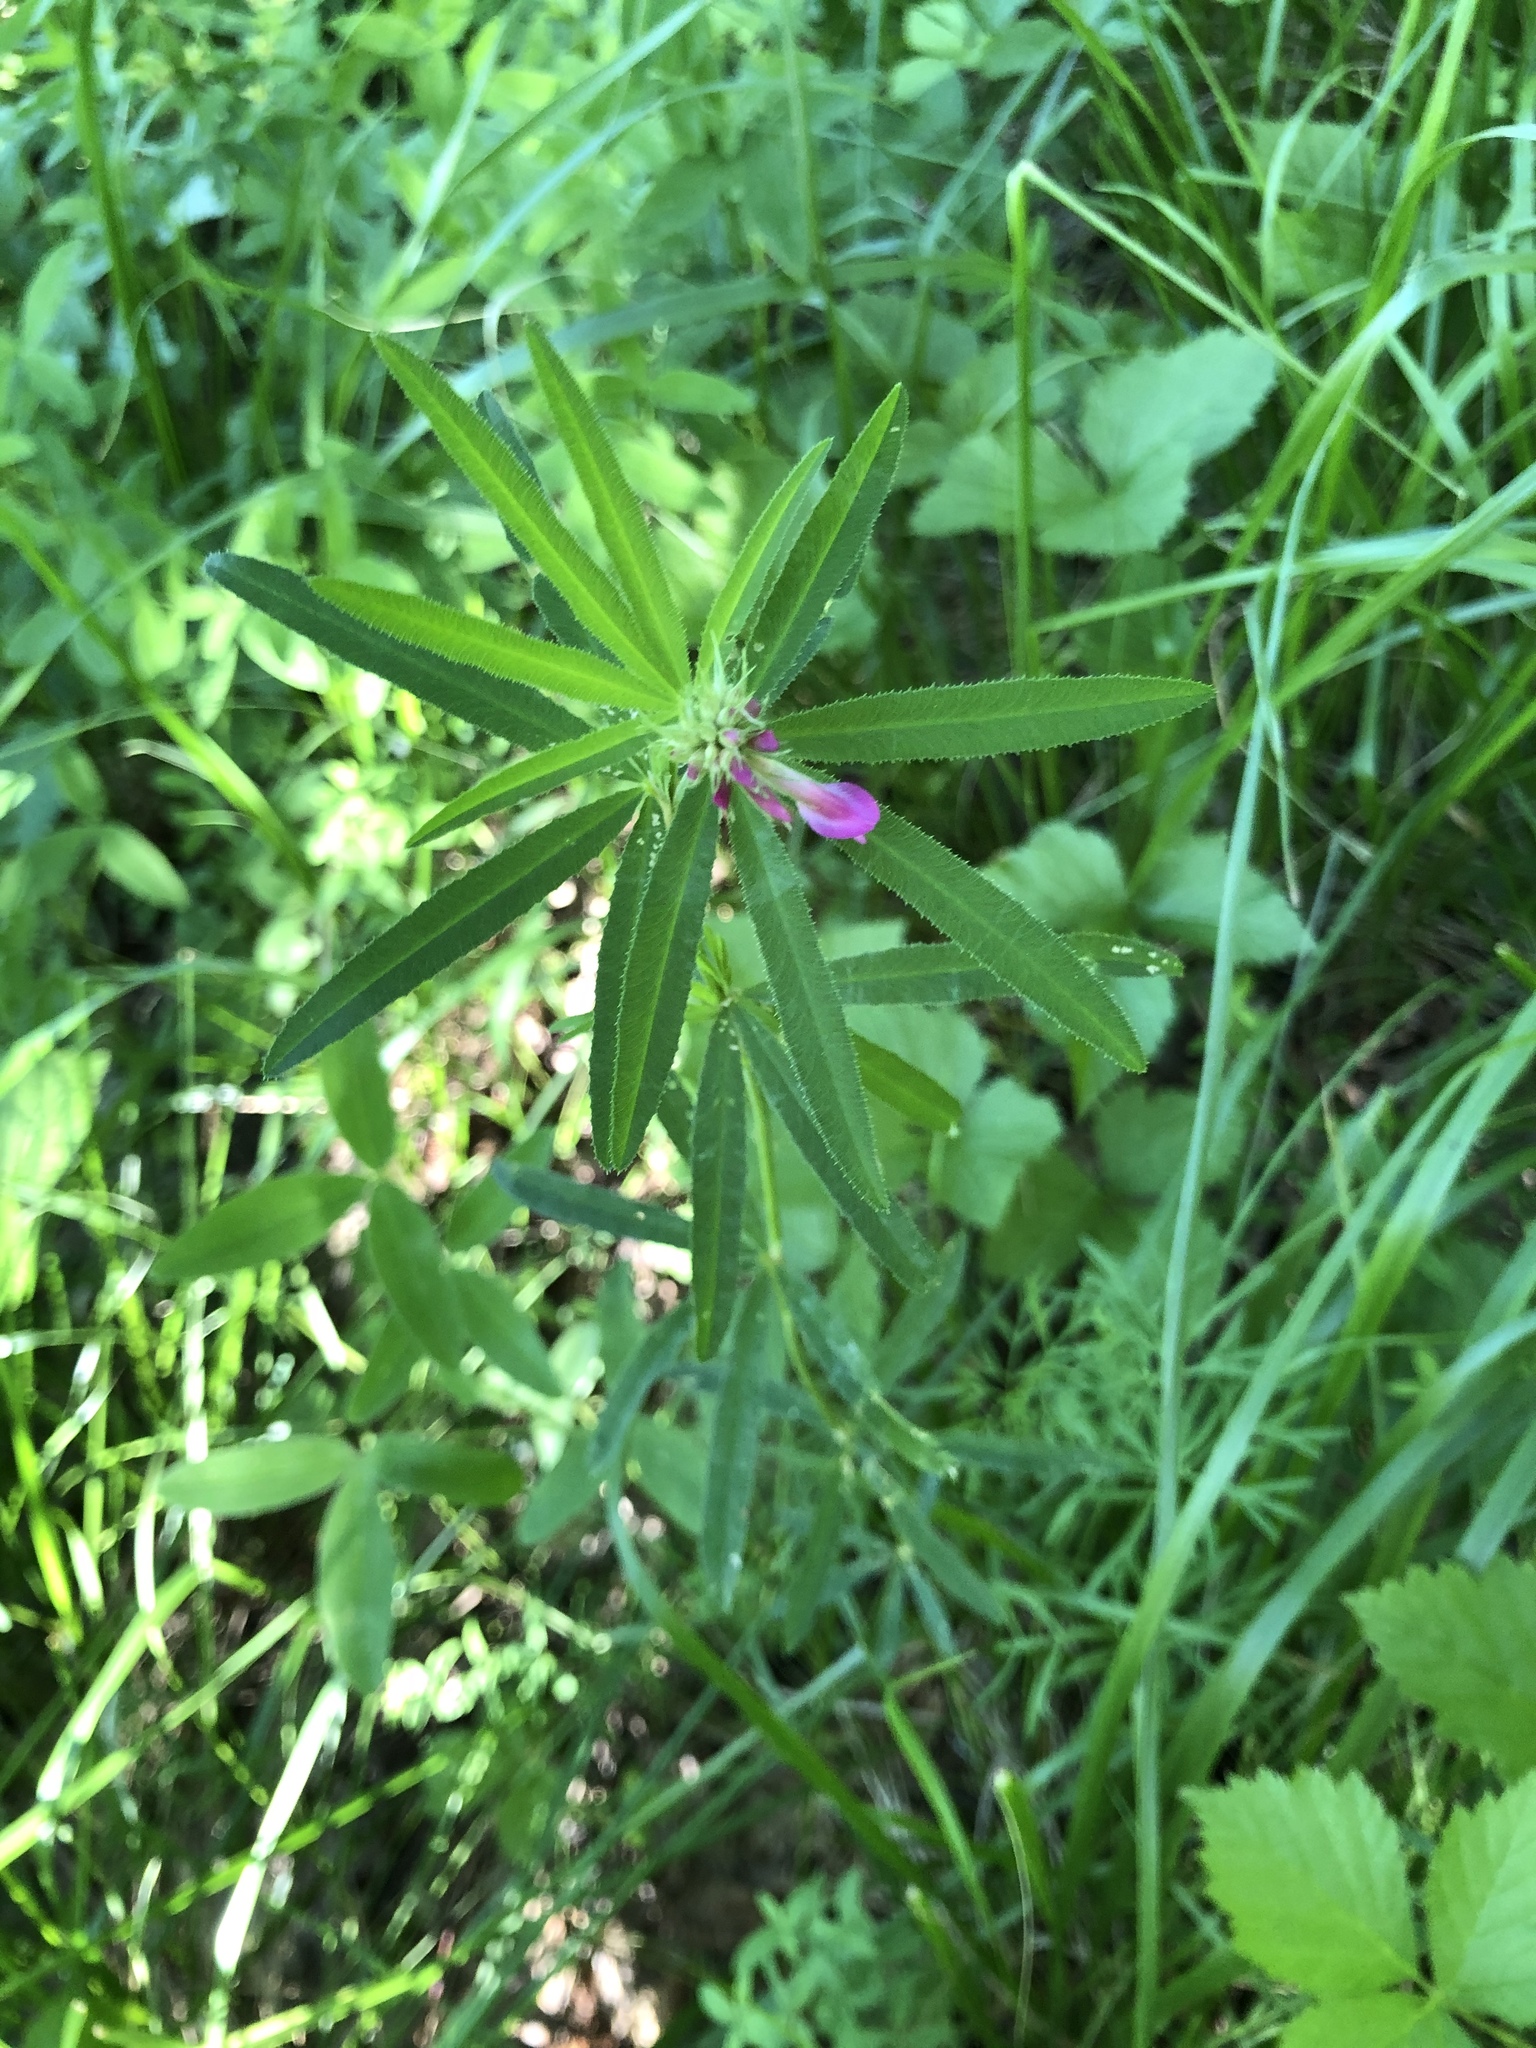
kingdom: Plantae
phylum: Tracheophyta
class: Magnoliopsida
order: Fabales
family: Fabaceae
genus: Trifolium
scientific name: Trifolium lupinaster
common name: Lupine clover
